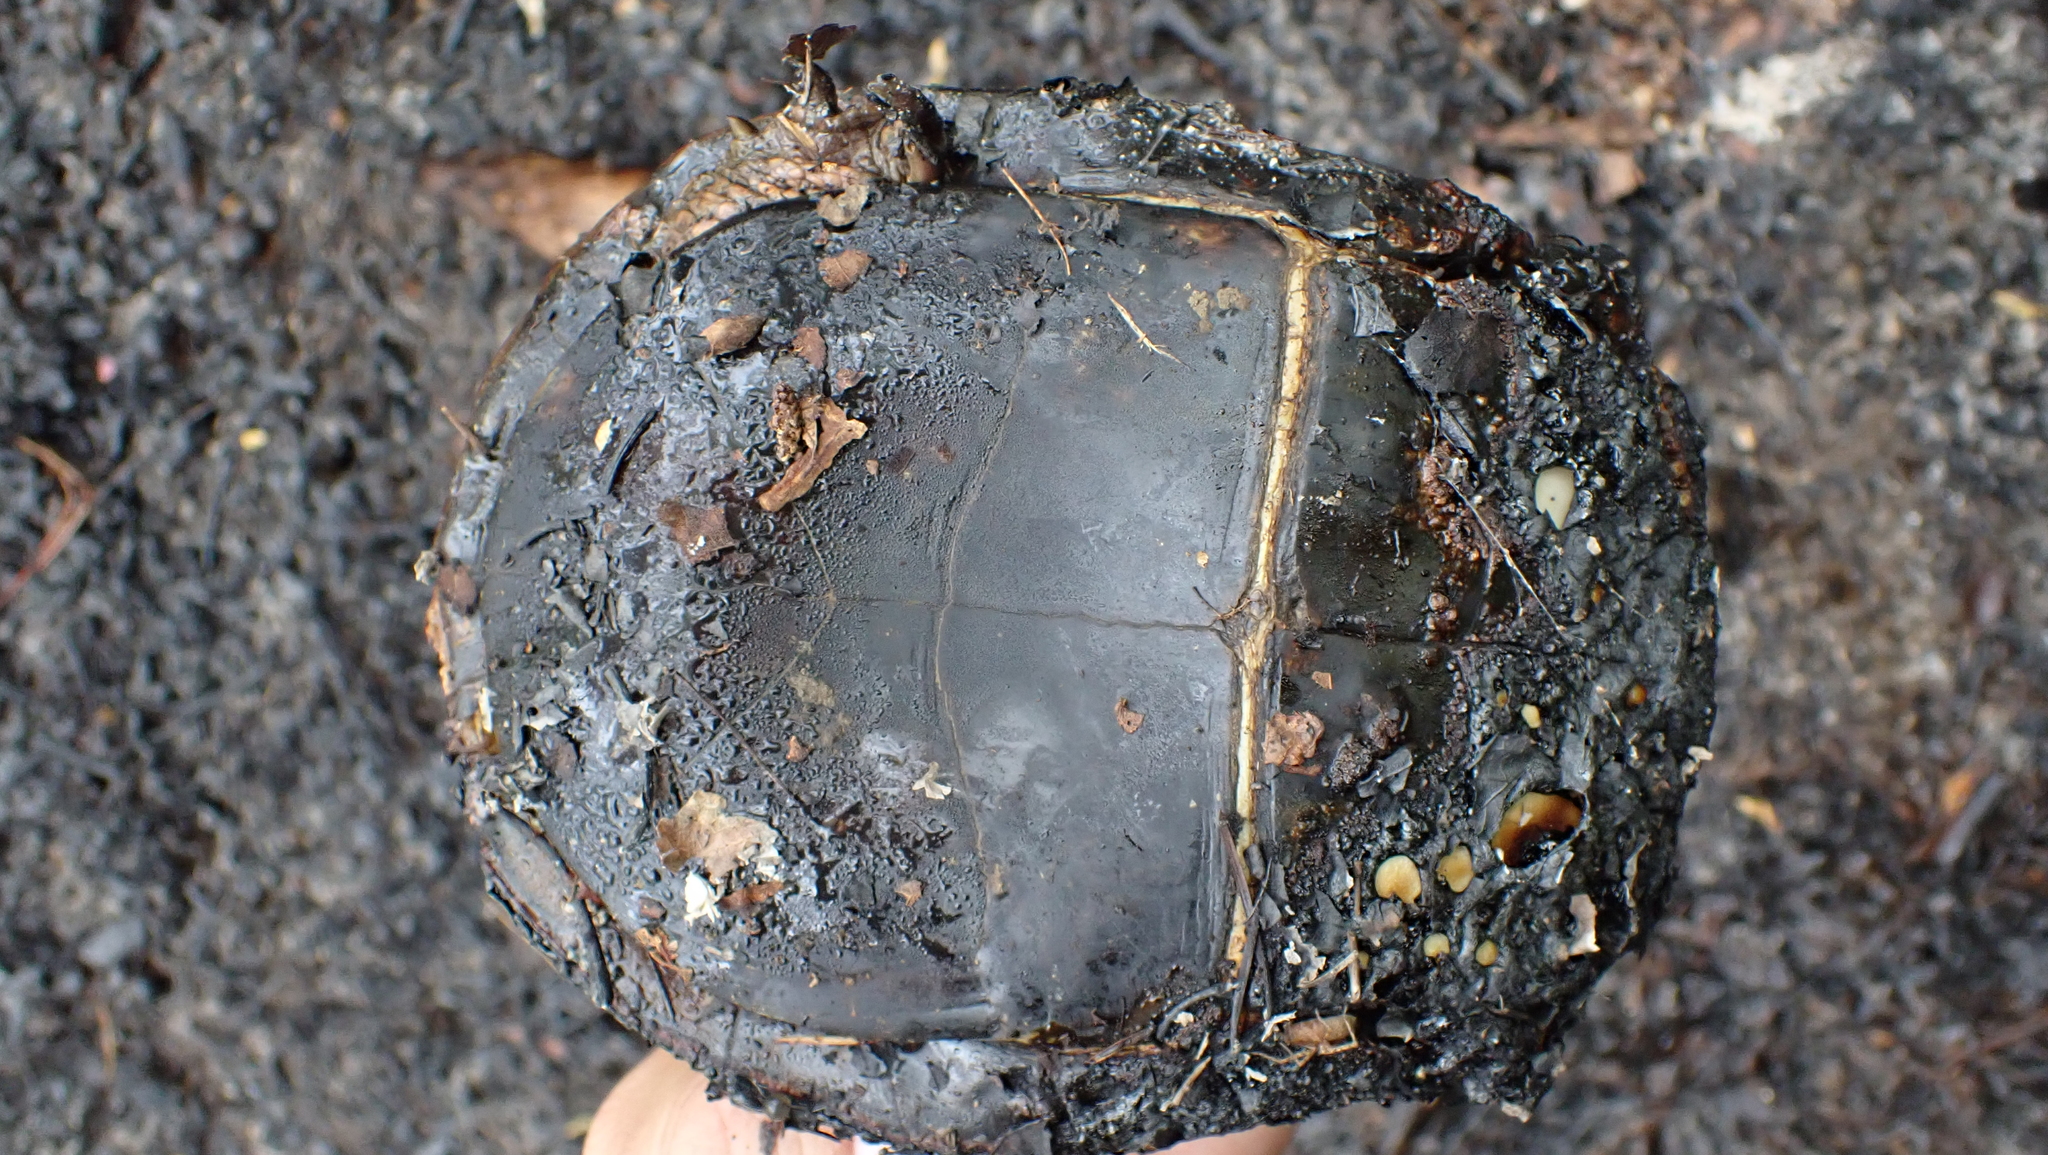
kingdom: Animalia
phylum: Chordata
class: Testudines
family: Emydidae
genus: Terrapene
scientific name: Terrapene carolina
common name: Common box turtle
